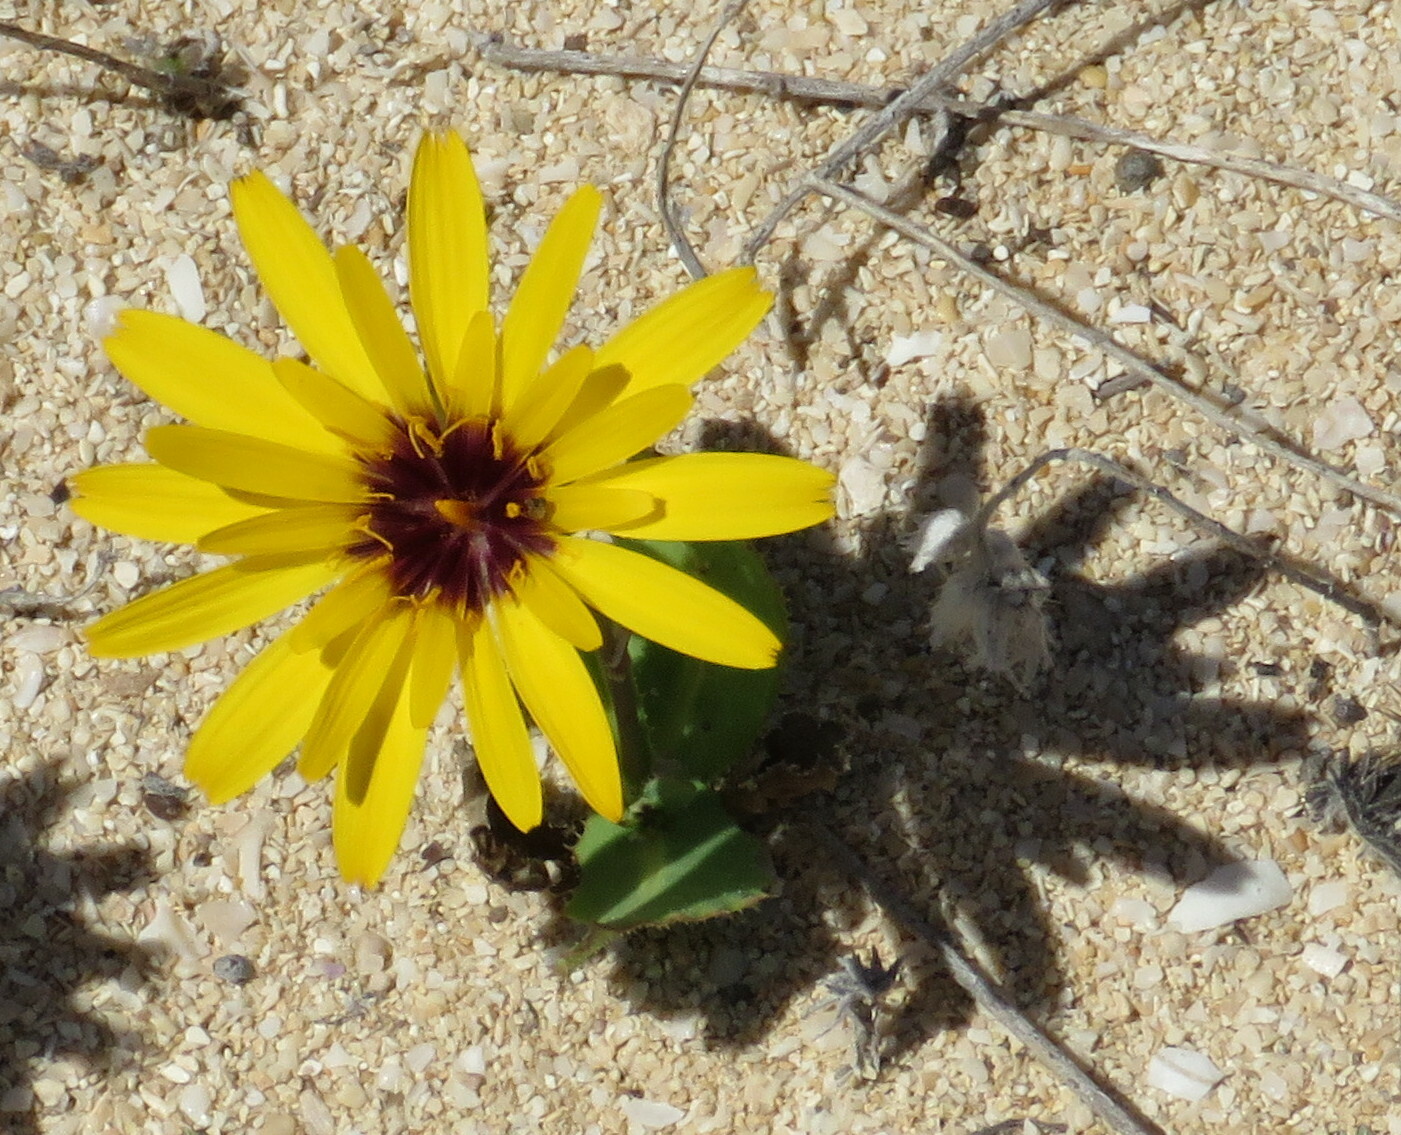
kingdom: Plantae
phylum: Tracheophyta
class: Magnoliopsida
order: Asterales
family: Asteraceae
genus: Reichardia
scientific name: Reichardia tingitana
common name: Reichardia
